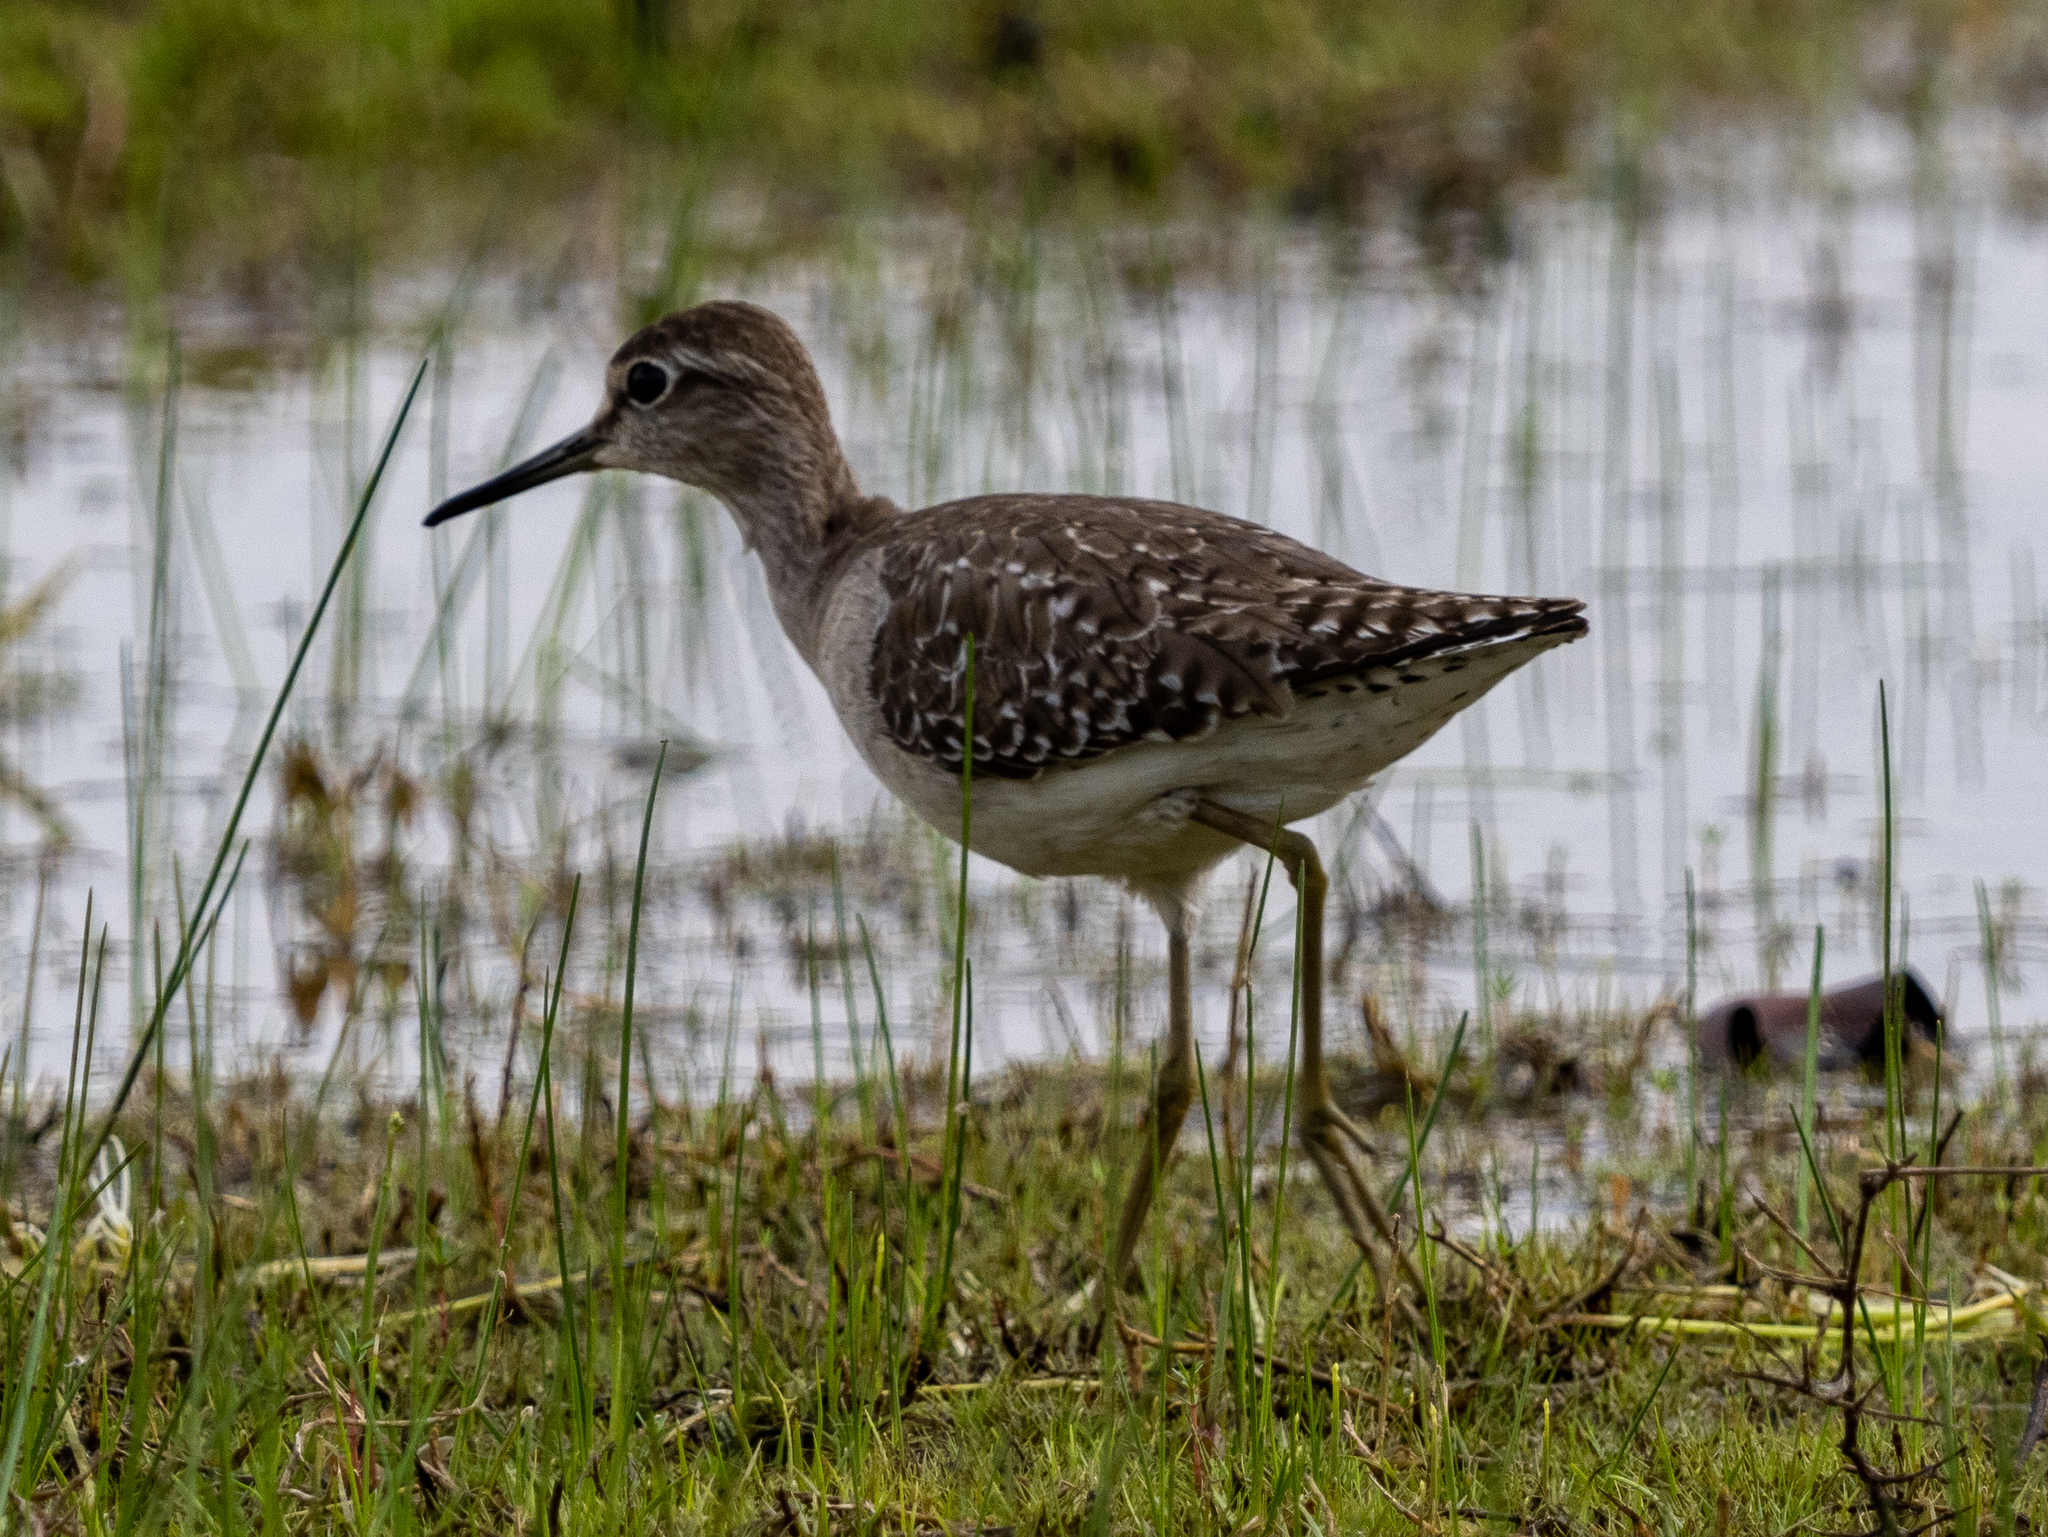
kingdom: Animalia
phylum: Chordata
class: Aves
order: Charadriiformes
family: Scolopacidae
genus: Tringa
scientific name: Tringa glareola
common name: Wood sandpiper
